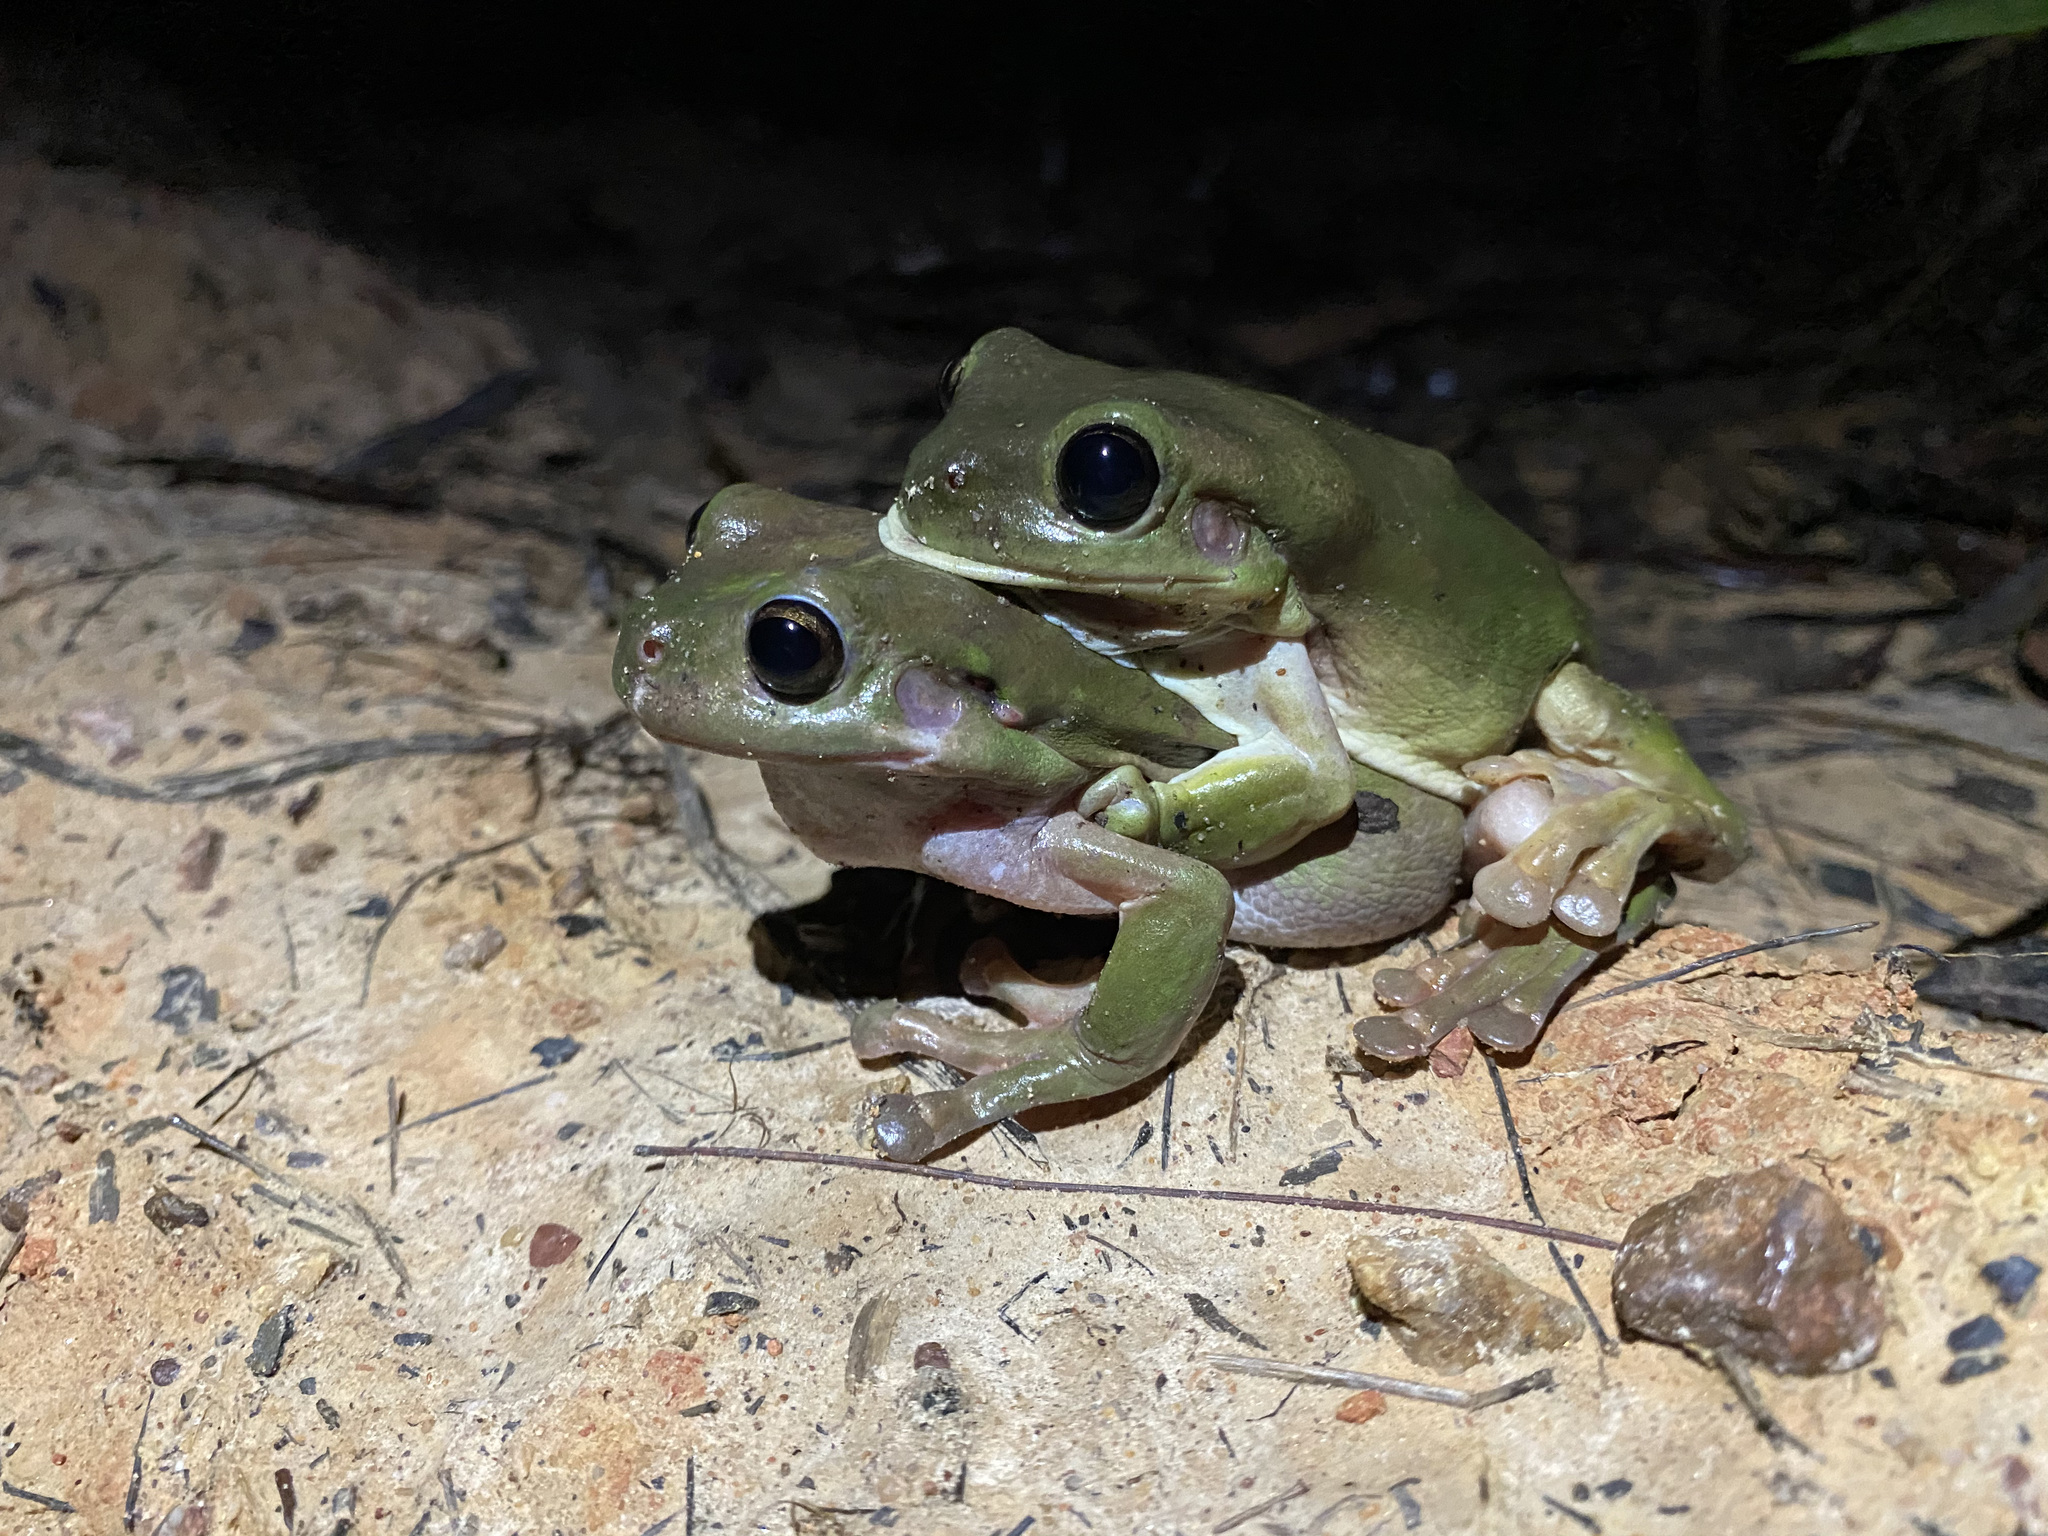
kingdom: Animalia
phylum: Chordata
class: Amphibia
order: Anura
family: Pelodryadidae
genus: Ranoidea
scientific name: Ranoidea caerulea
